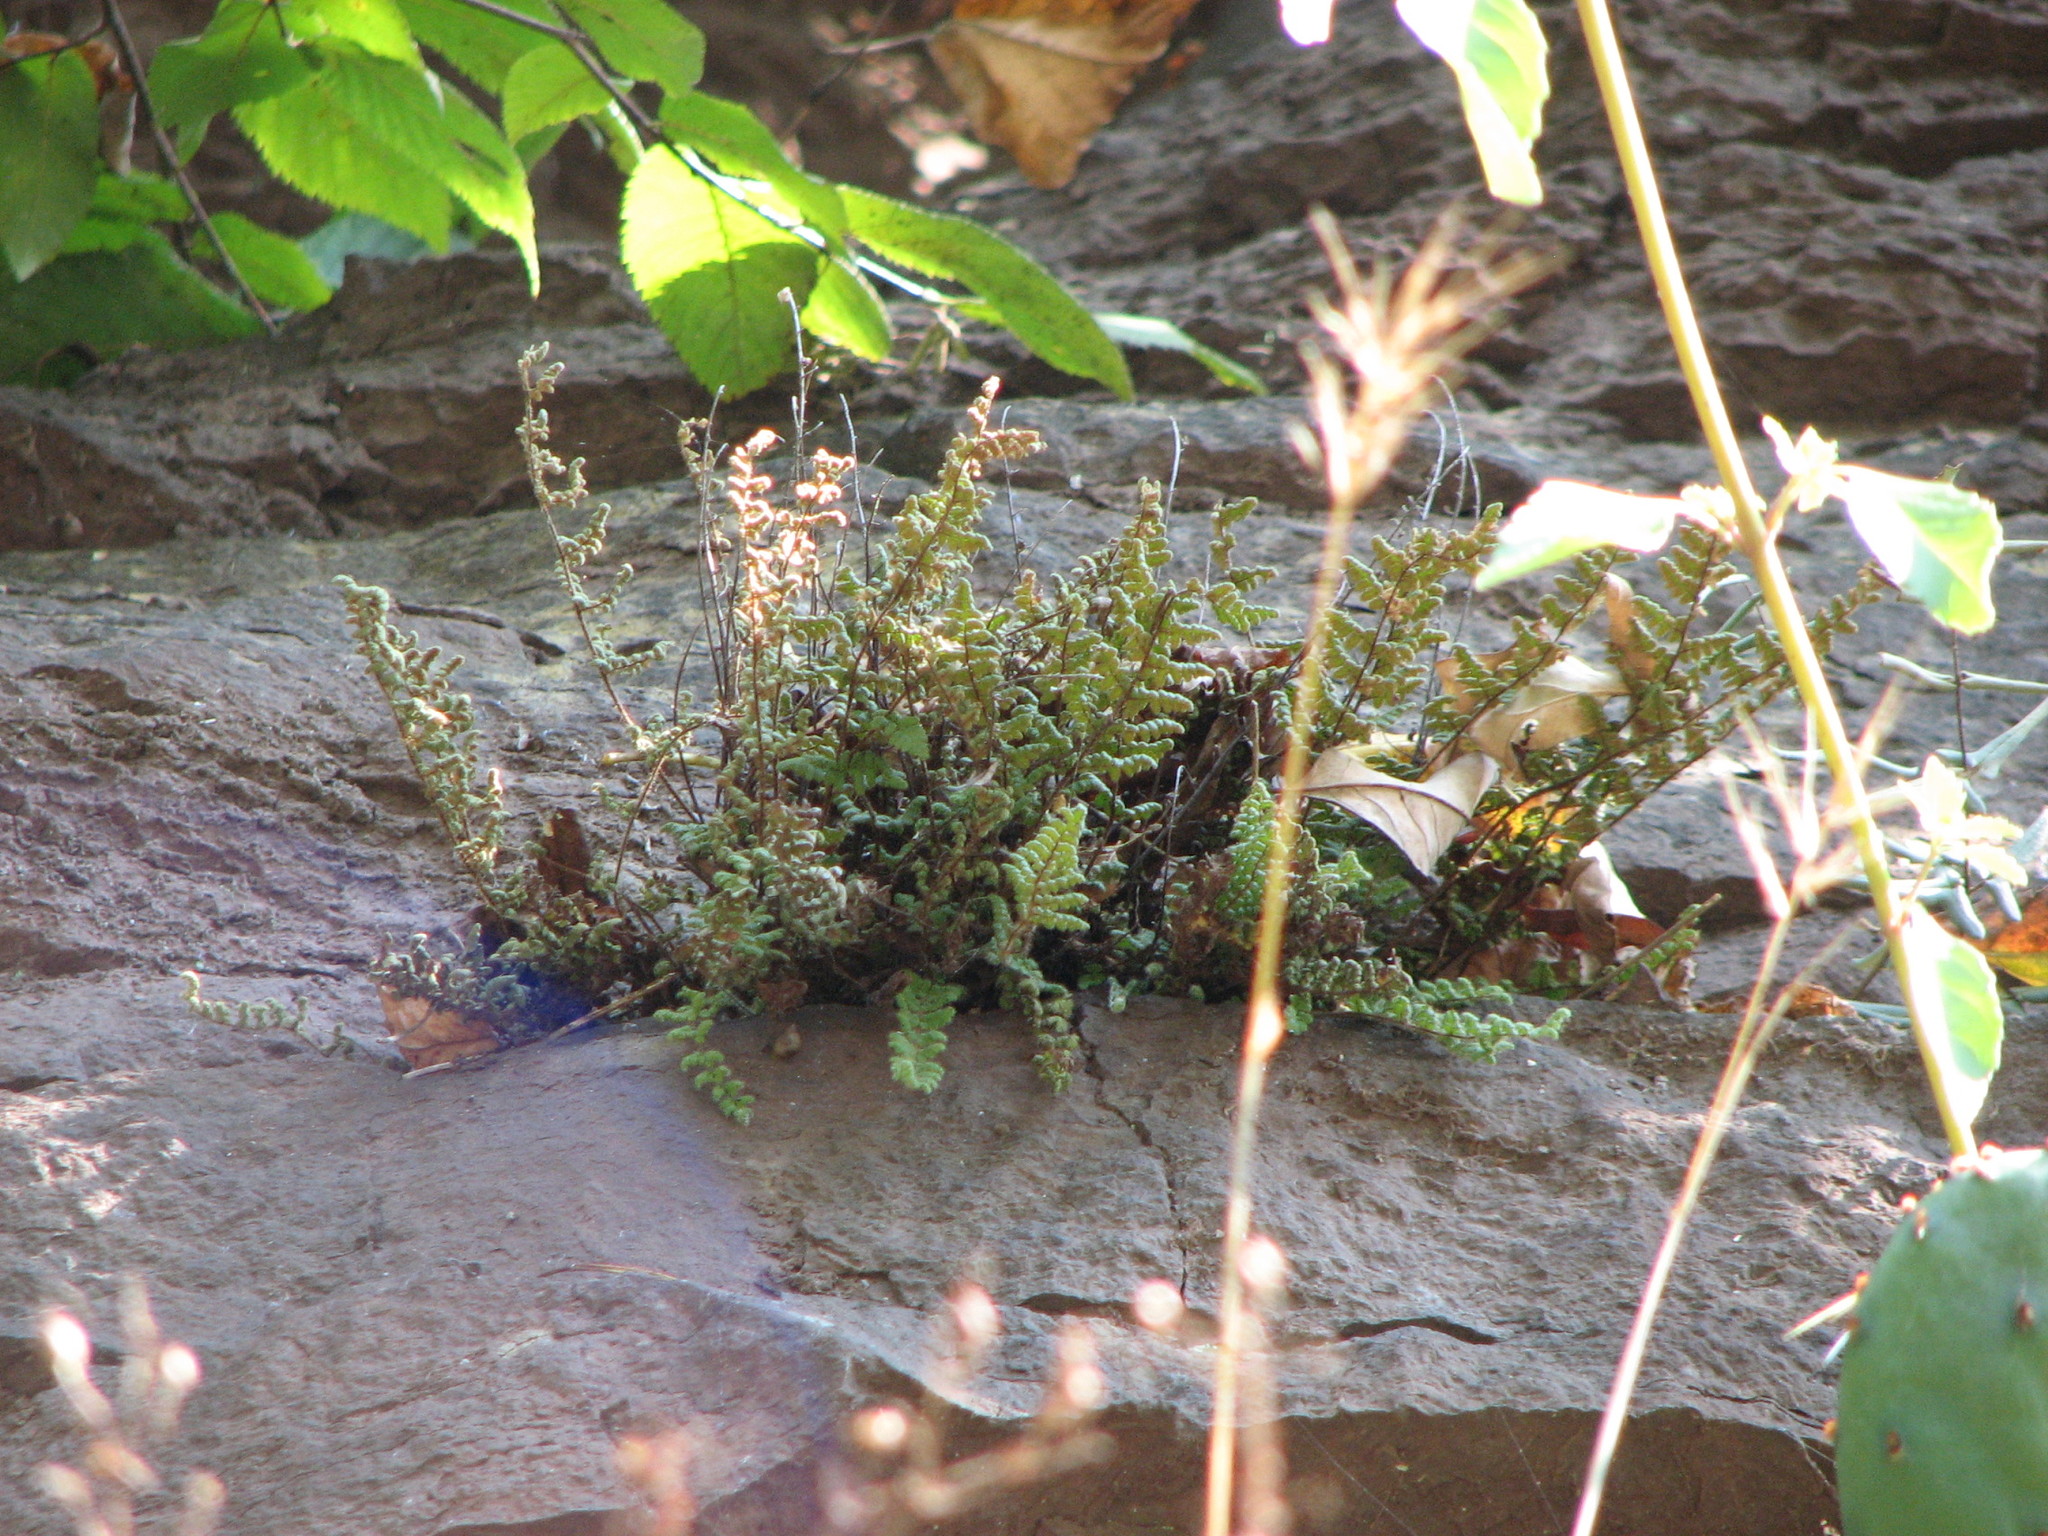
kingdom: Plantae
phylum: Tracheophyta
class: Polypodiopsida
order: Polypodiales
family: Pteridaceae
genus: Myriopteris
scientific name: Myriopteris lanosa
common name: Hairy lip fern
